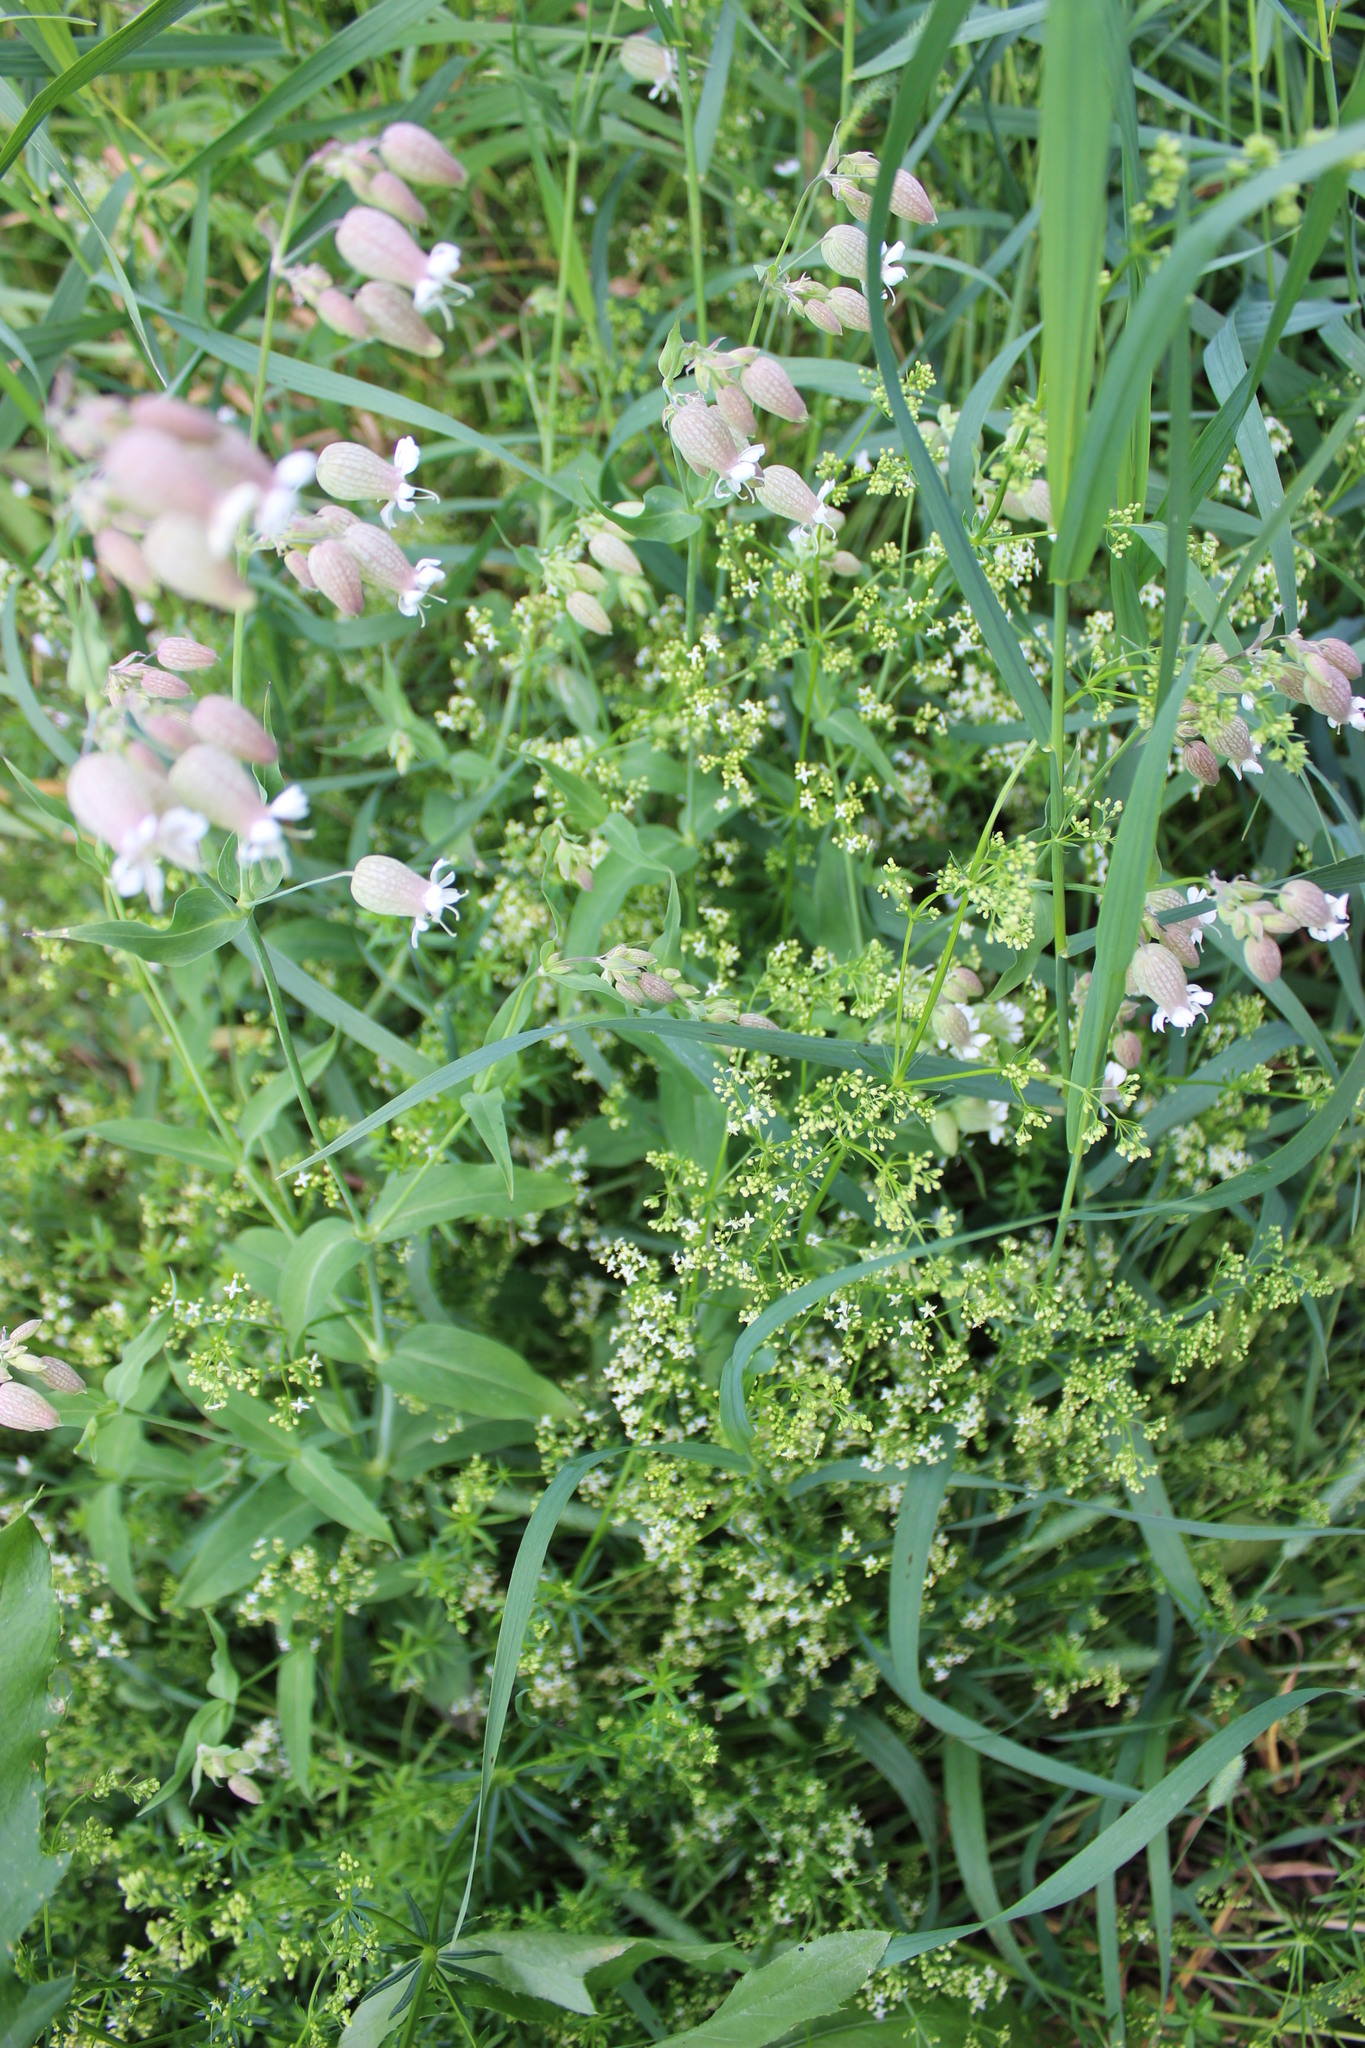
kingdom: Plantae
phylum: Tracheophyta
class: Magnoliopsida
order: Caryophyllales
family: Caryophyllaceae
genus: Silene
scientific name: Silene vulgaris
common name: Bladder campion
